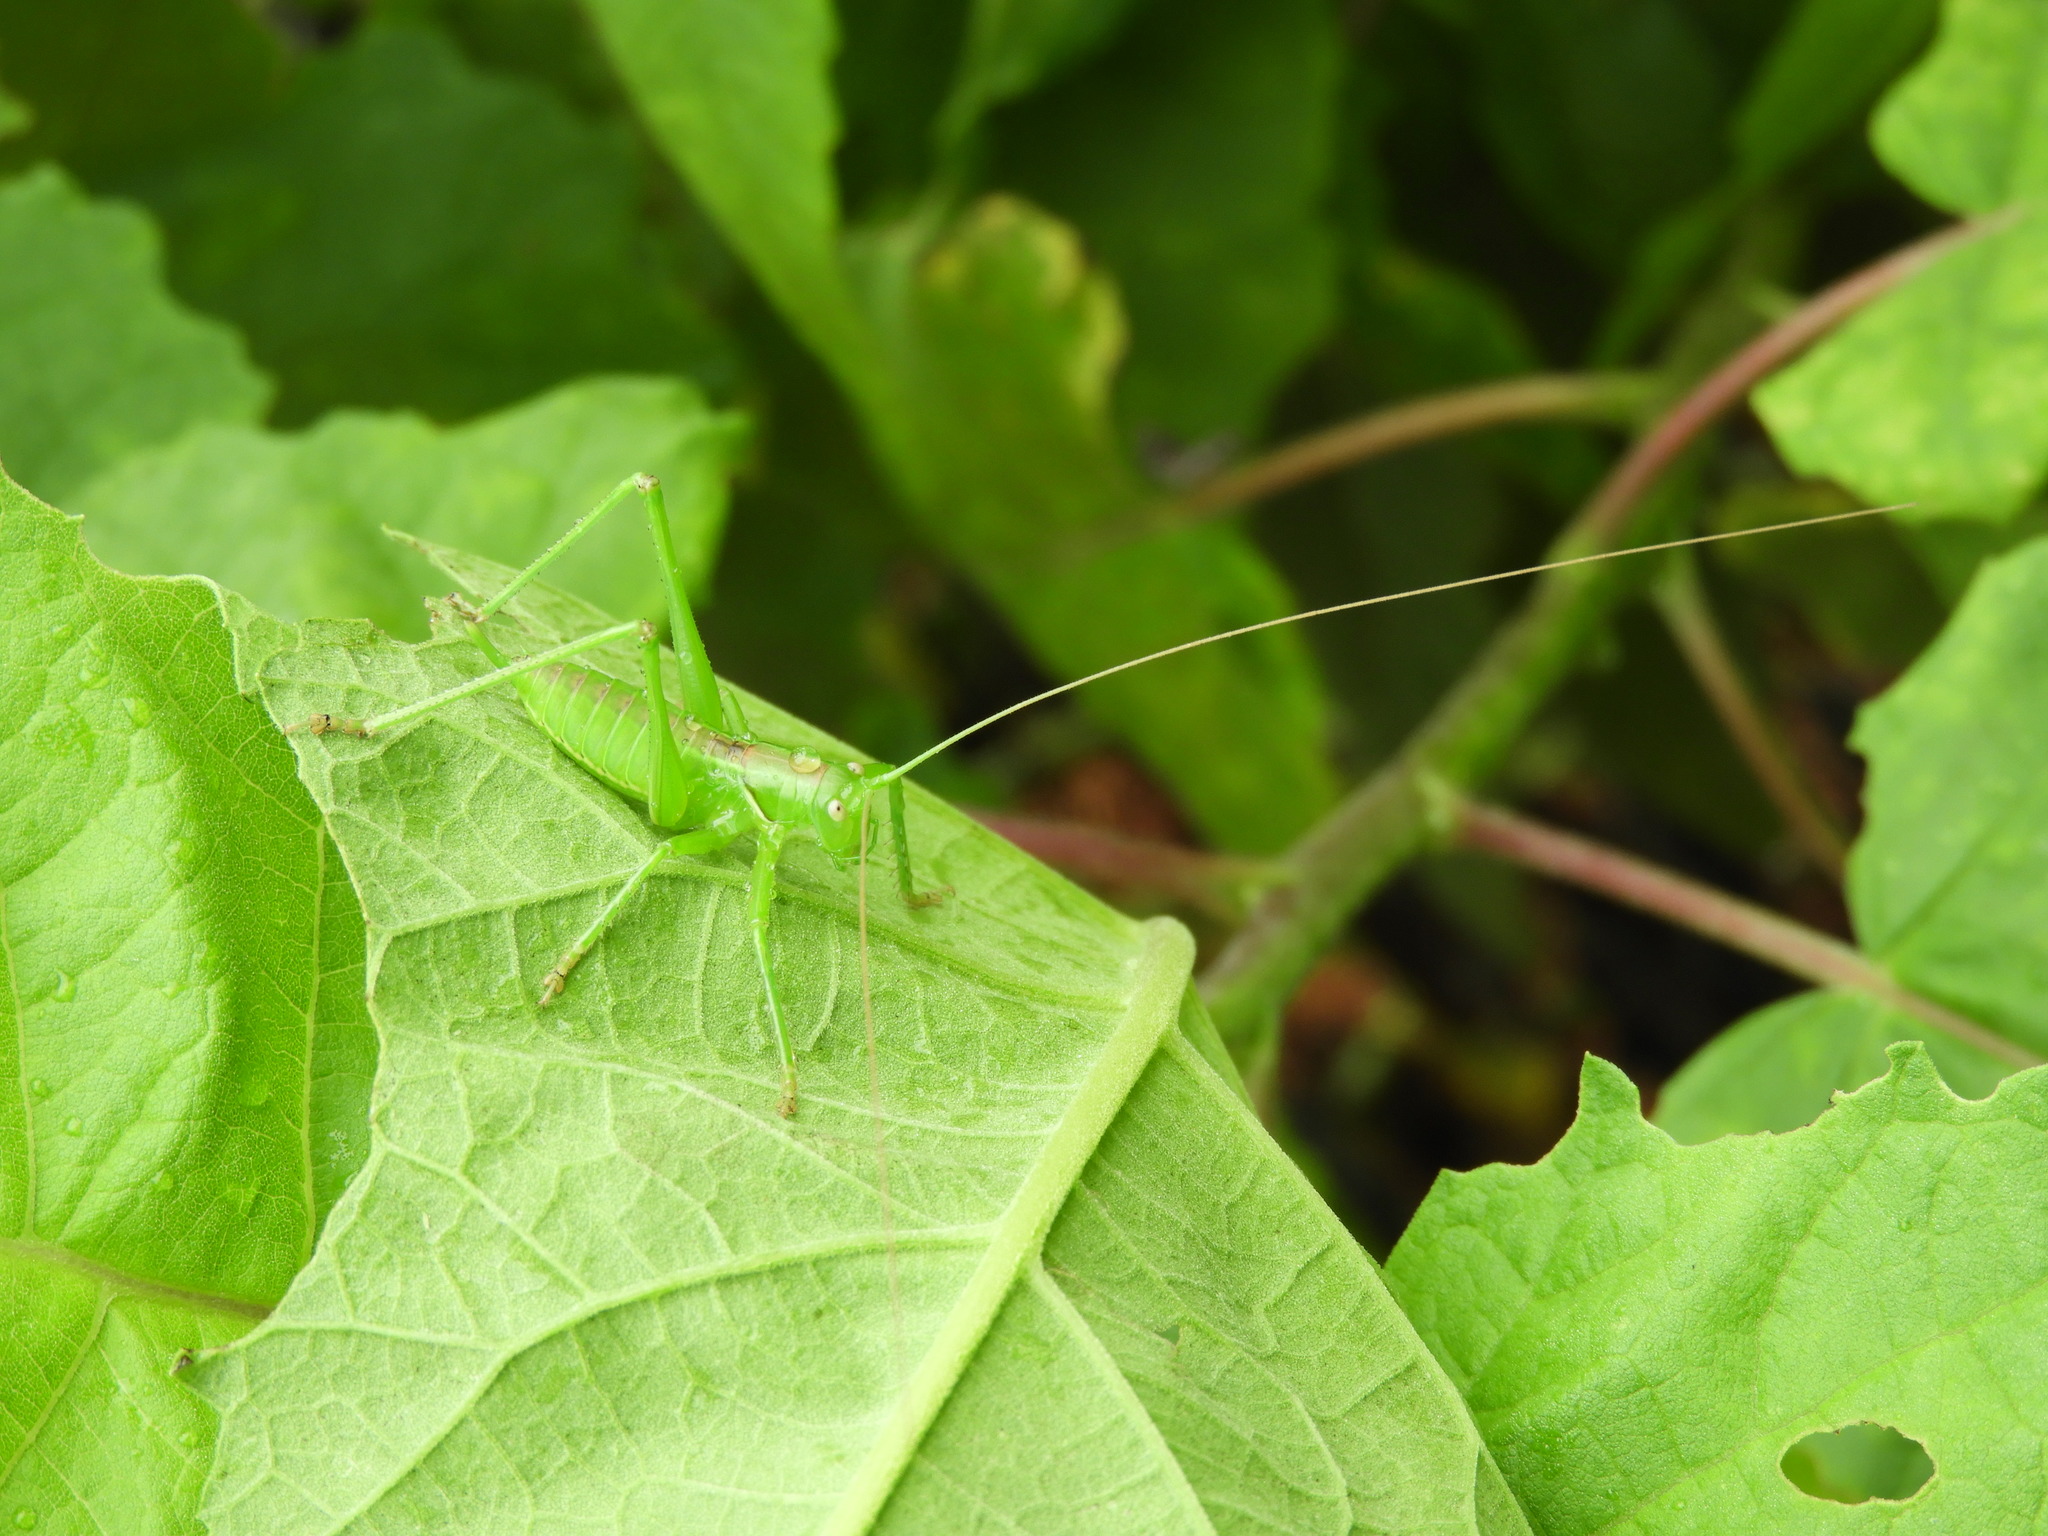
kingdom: Animalia
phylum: Arthropoda
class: Insecta
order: Orthoptera
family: Tettigoniidae
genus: Neobarrettia
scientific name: Neobarrettia sinaloae
